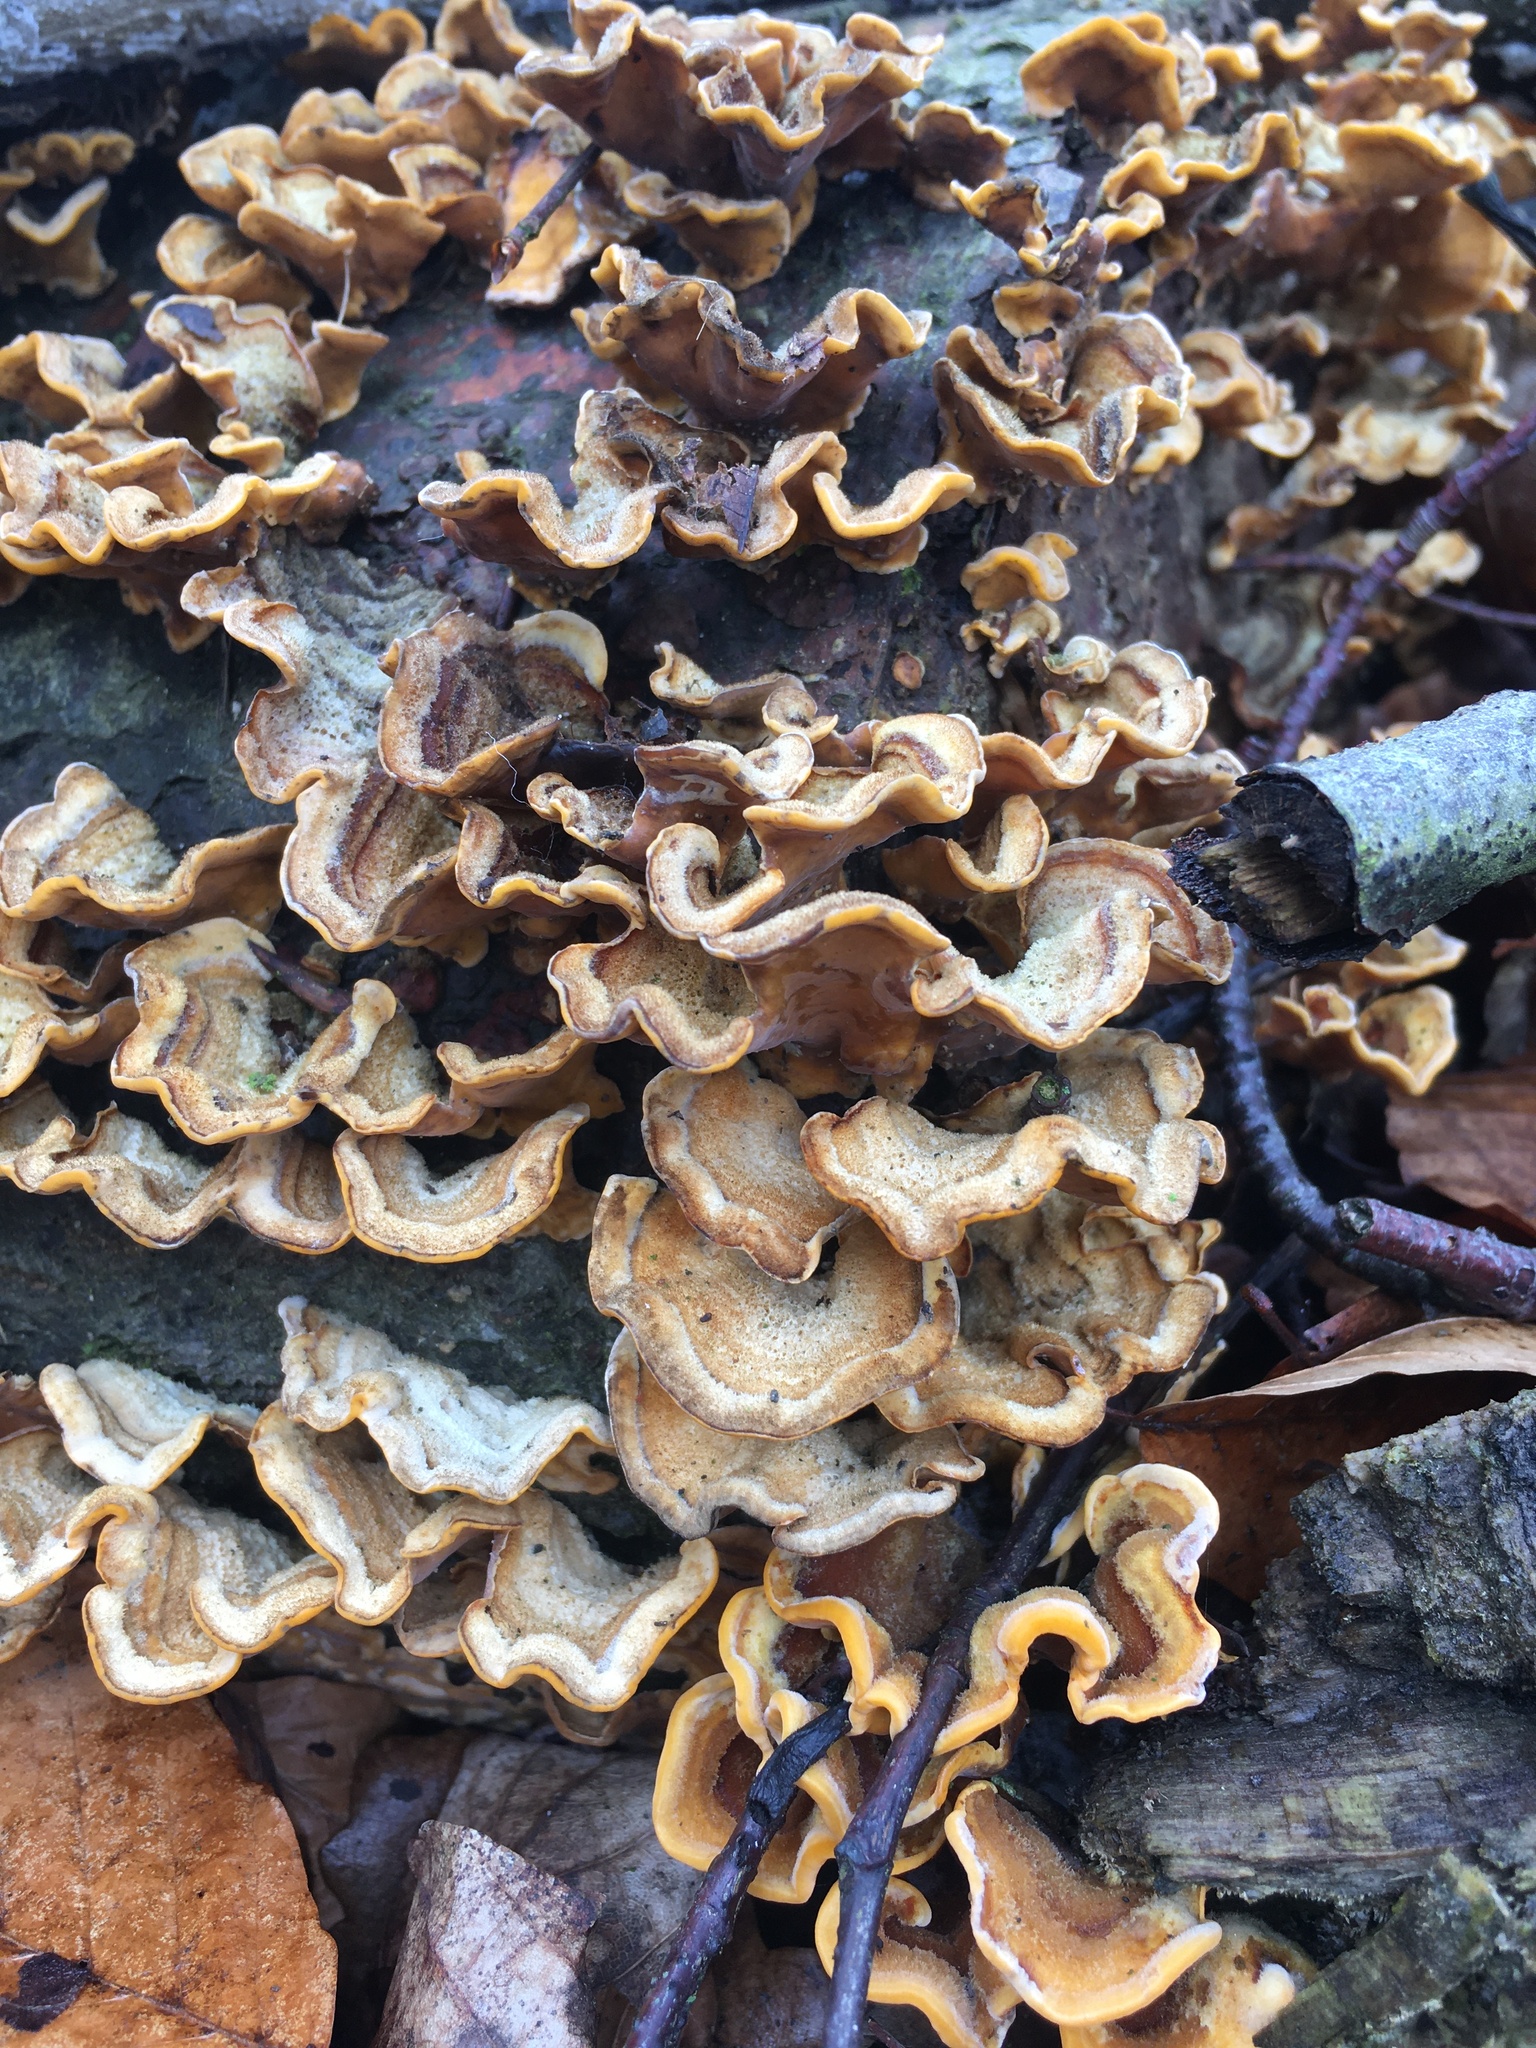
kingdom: Fungi
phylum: Basidiomycota
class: Agaricomycetes
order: Russulales
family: Stereaceae
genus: Stereum
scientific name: Stereum hirsutum
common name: Hairy curtain crust
